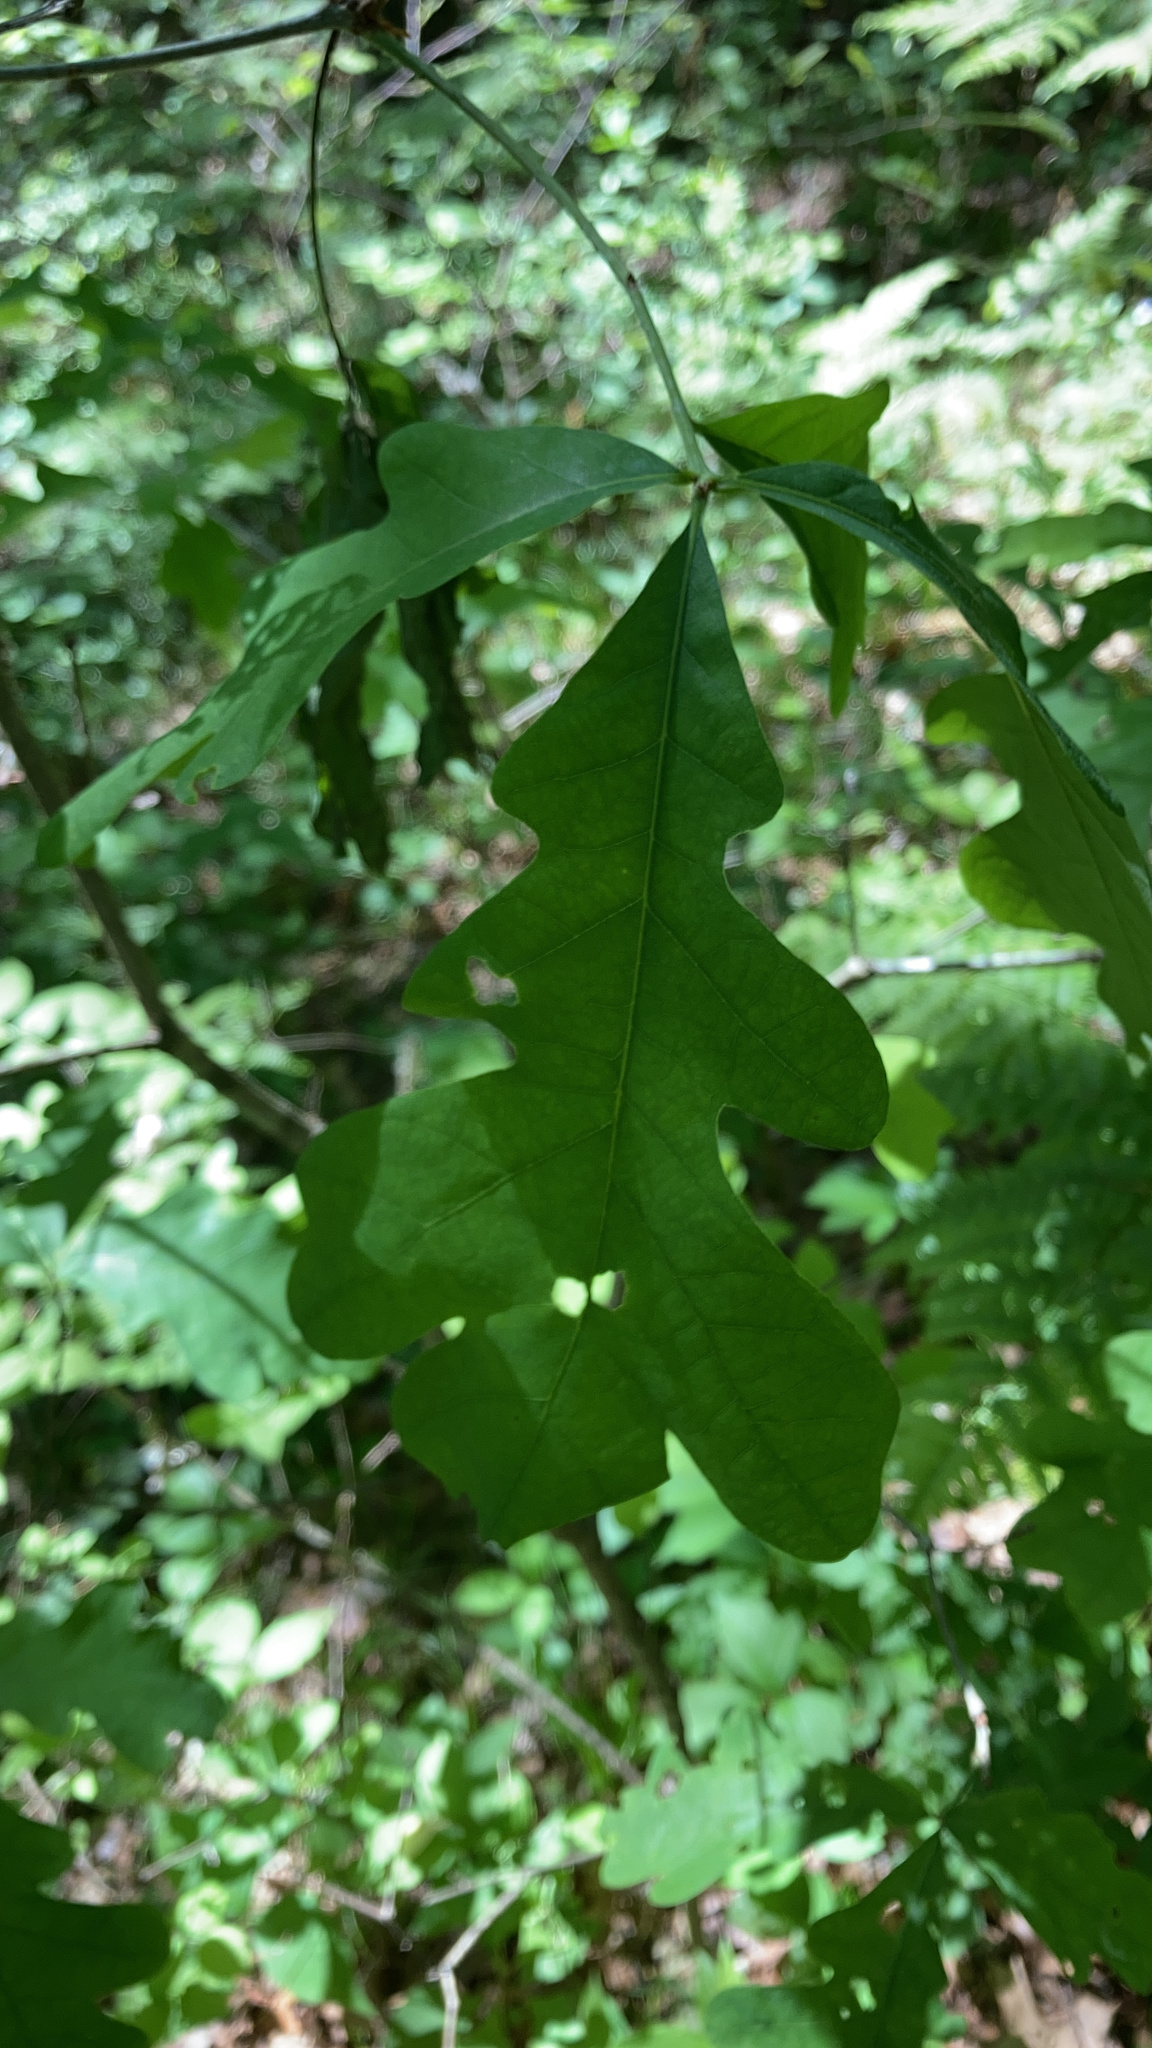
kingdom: Plantae
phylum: Tracheophyta
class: Magnoliopsida
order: Fagales
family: Fagaceae
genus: Quercus
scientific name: Quercus alba
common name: White oak
